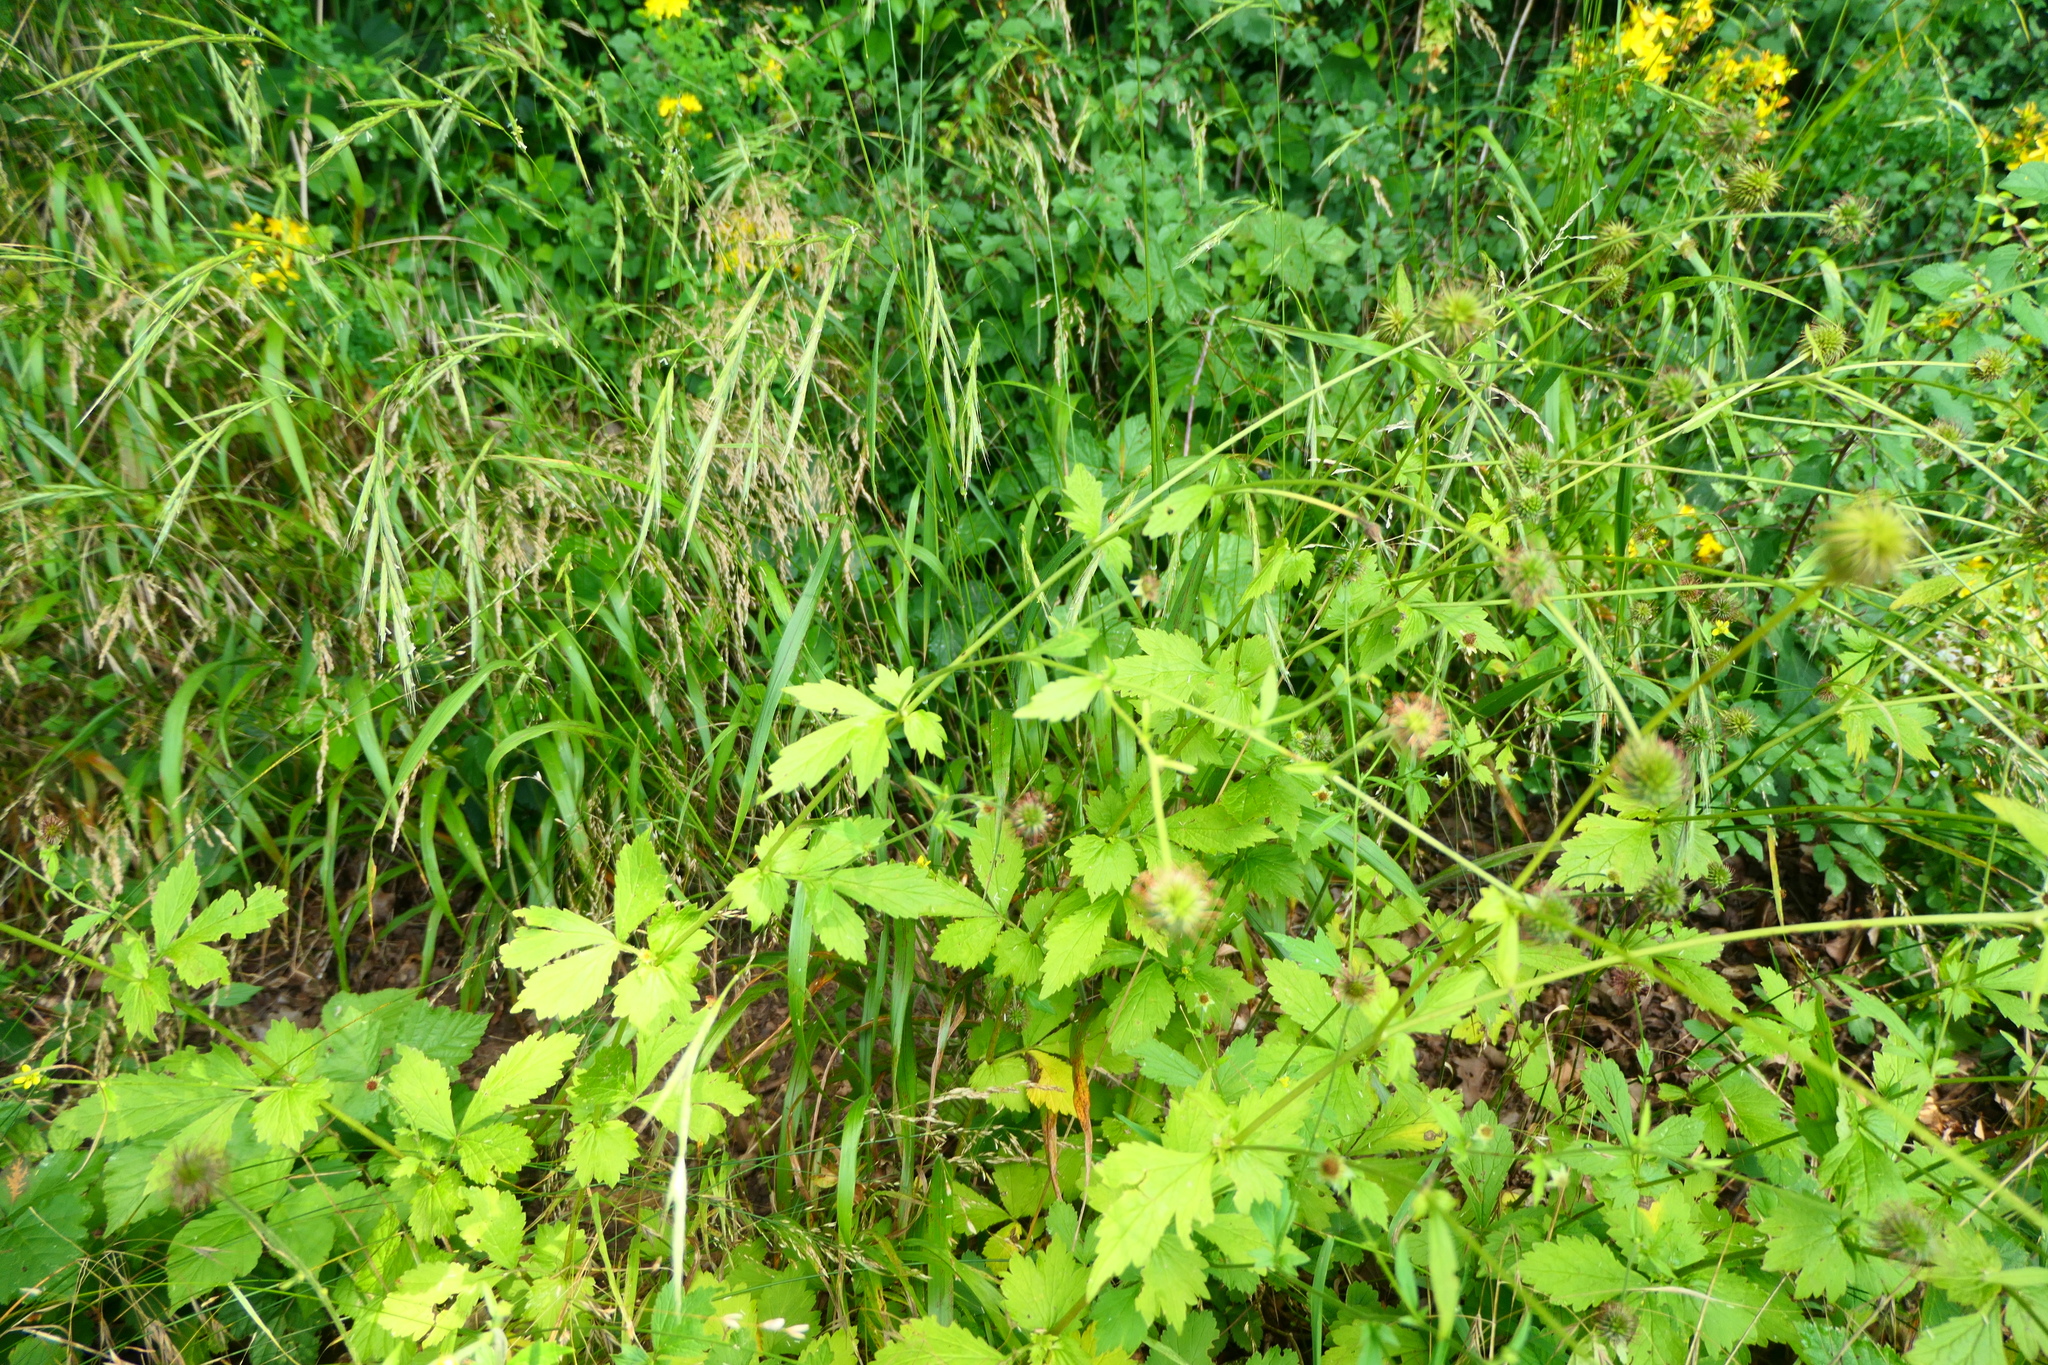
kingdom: Plantae
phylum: Tracheophyta
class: Magnoliopsida
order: Rosales
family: Rosaceae
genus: Geum
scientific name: Geum urbanum
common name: Wood avens
